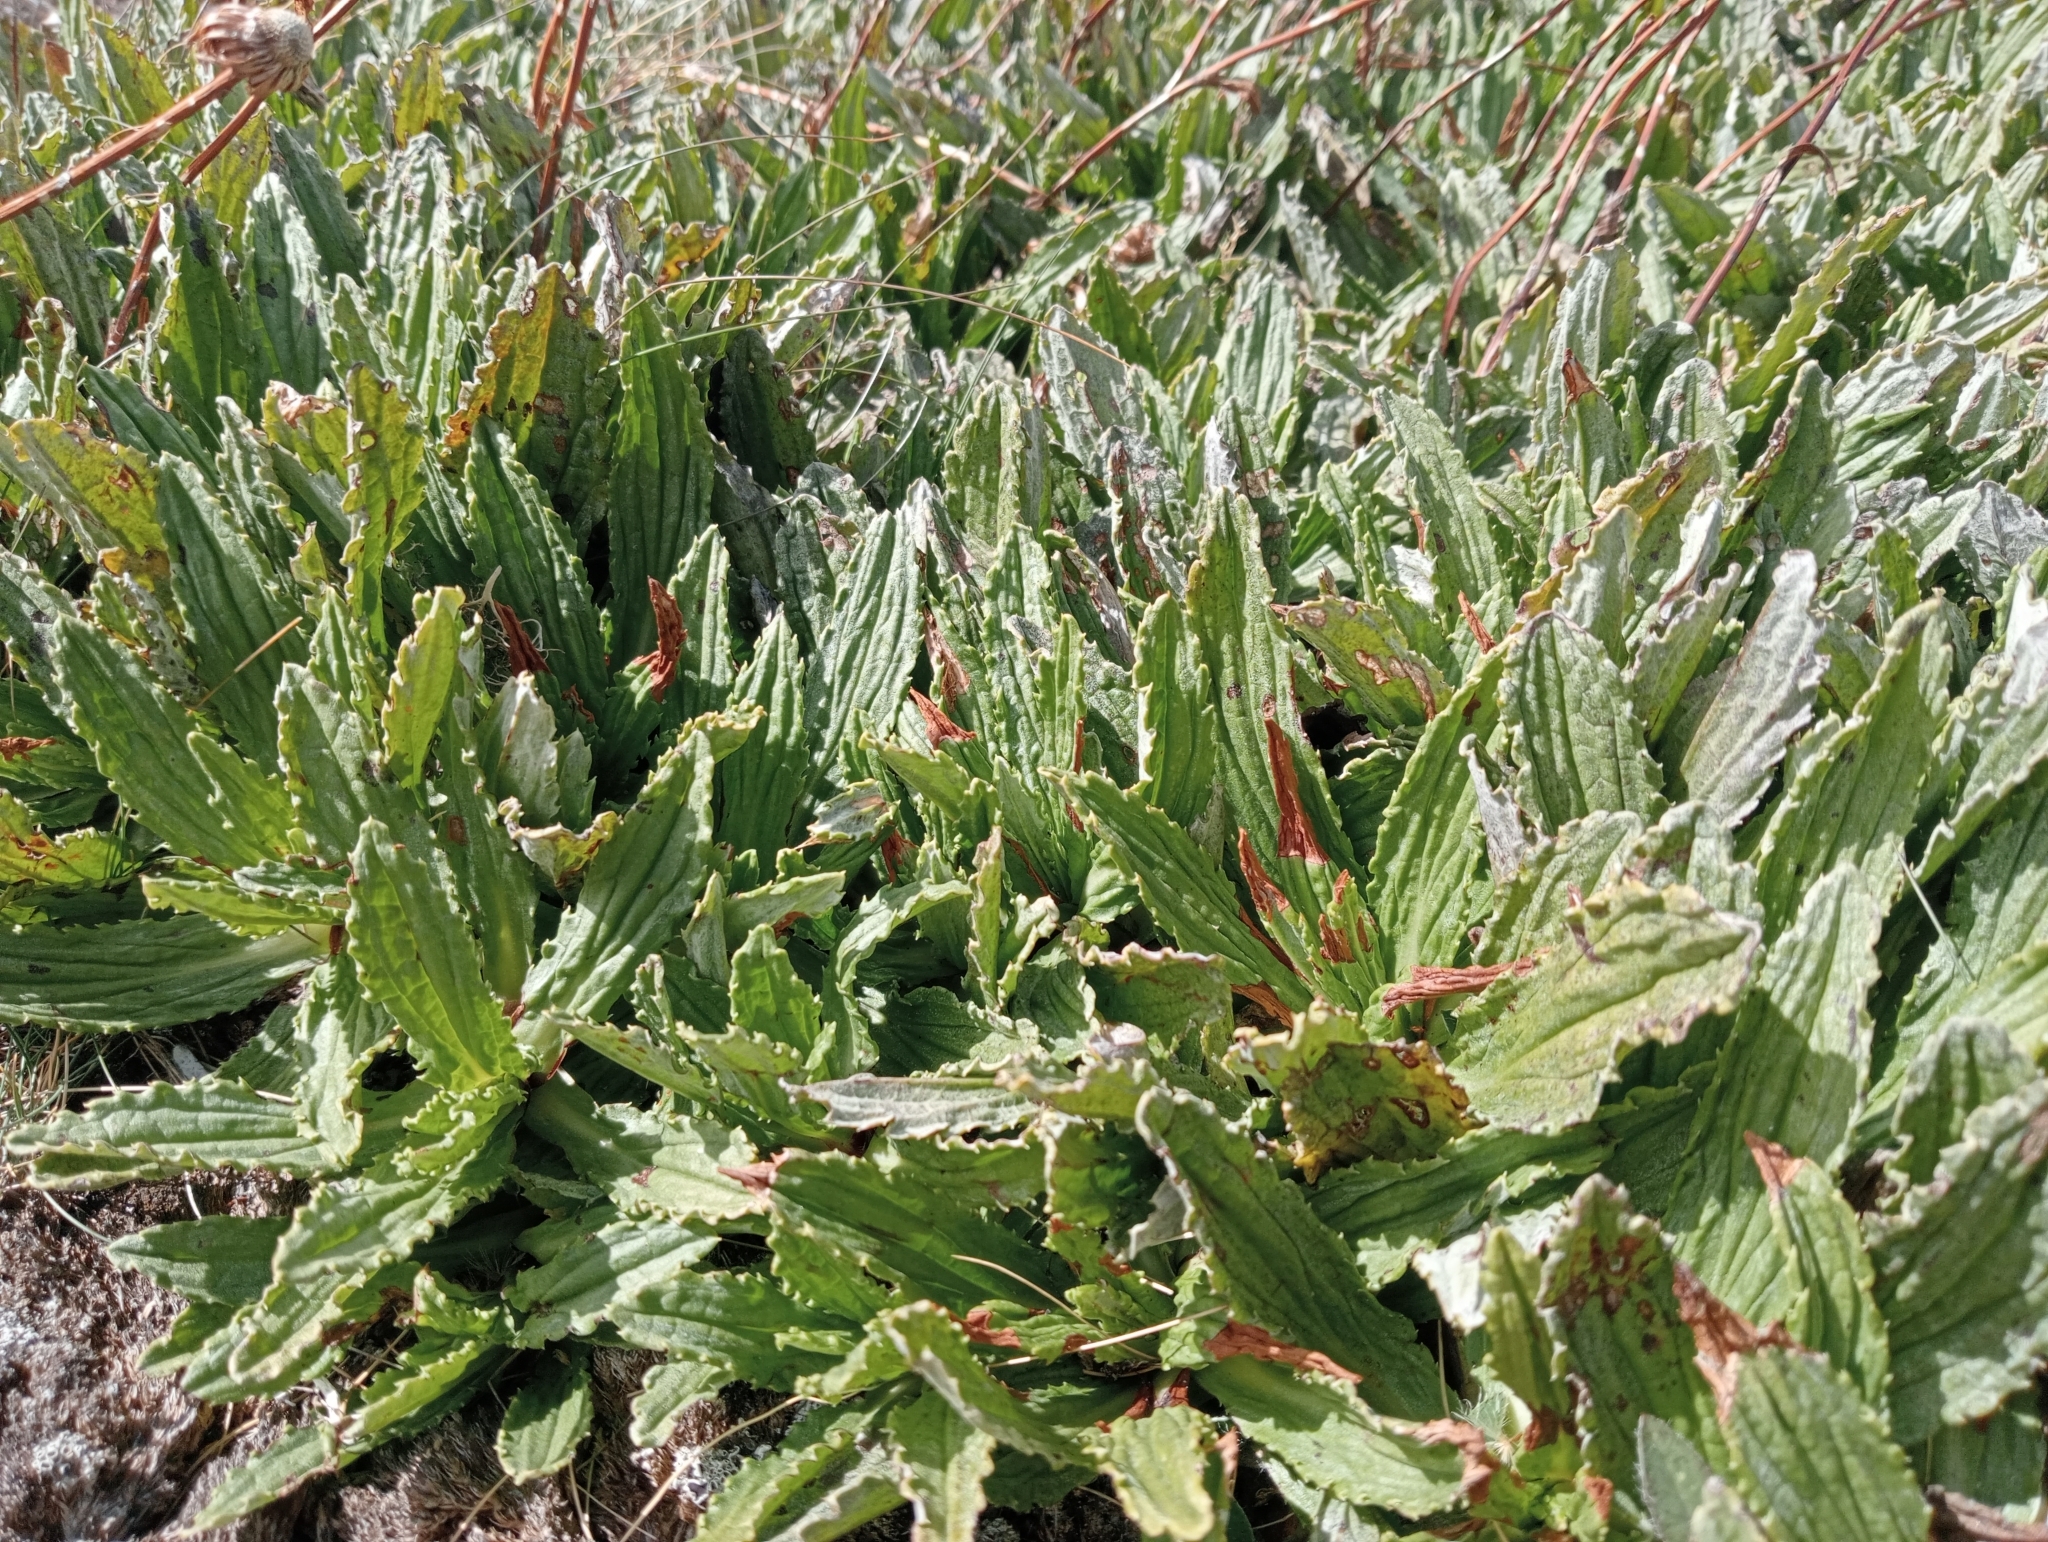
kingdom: Plantae
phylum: Tracheophyta
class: Magnoliopsida
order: Asterales
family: Asteraceae
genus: Celmisia
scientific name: Celmisia prorepens
